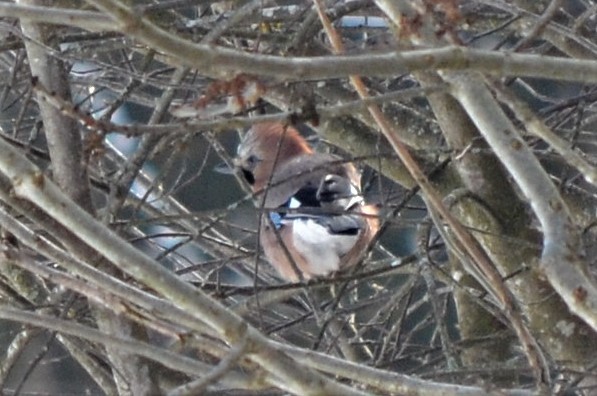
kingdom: Animalia
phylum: Chordata
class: Aves
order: Passeriformes
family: Corvidae
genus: Garrulus
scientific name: Garrulus glandarius
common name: Eurasian jay
